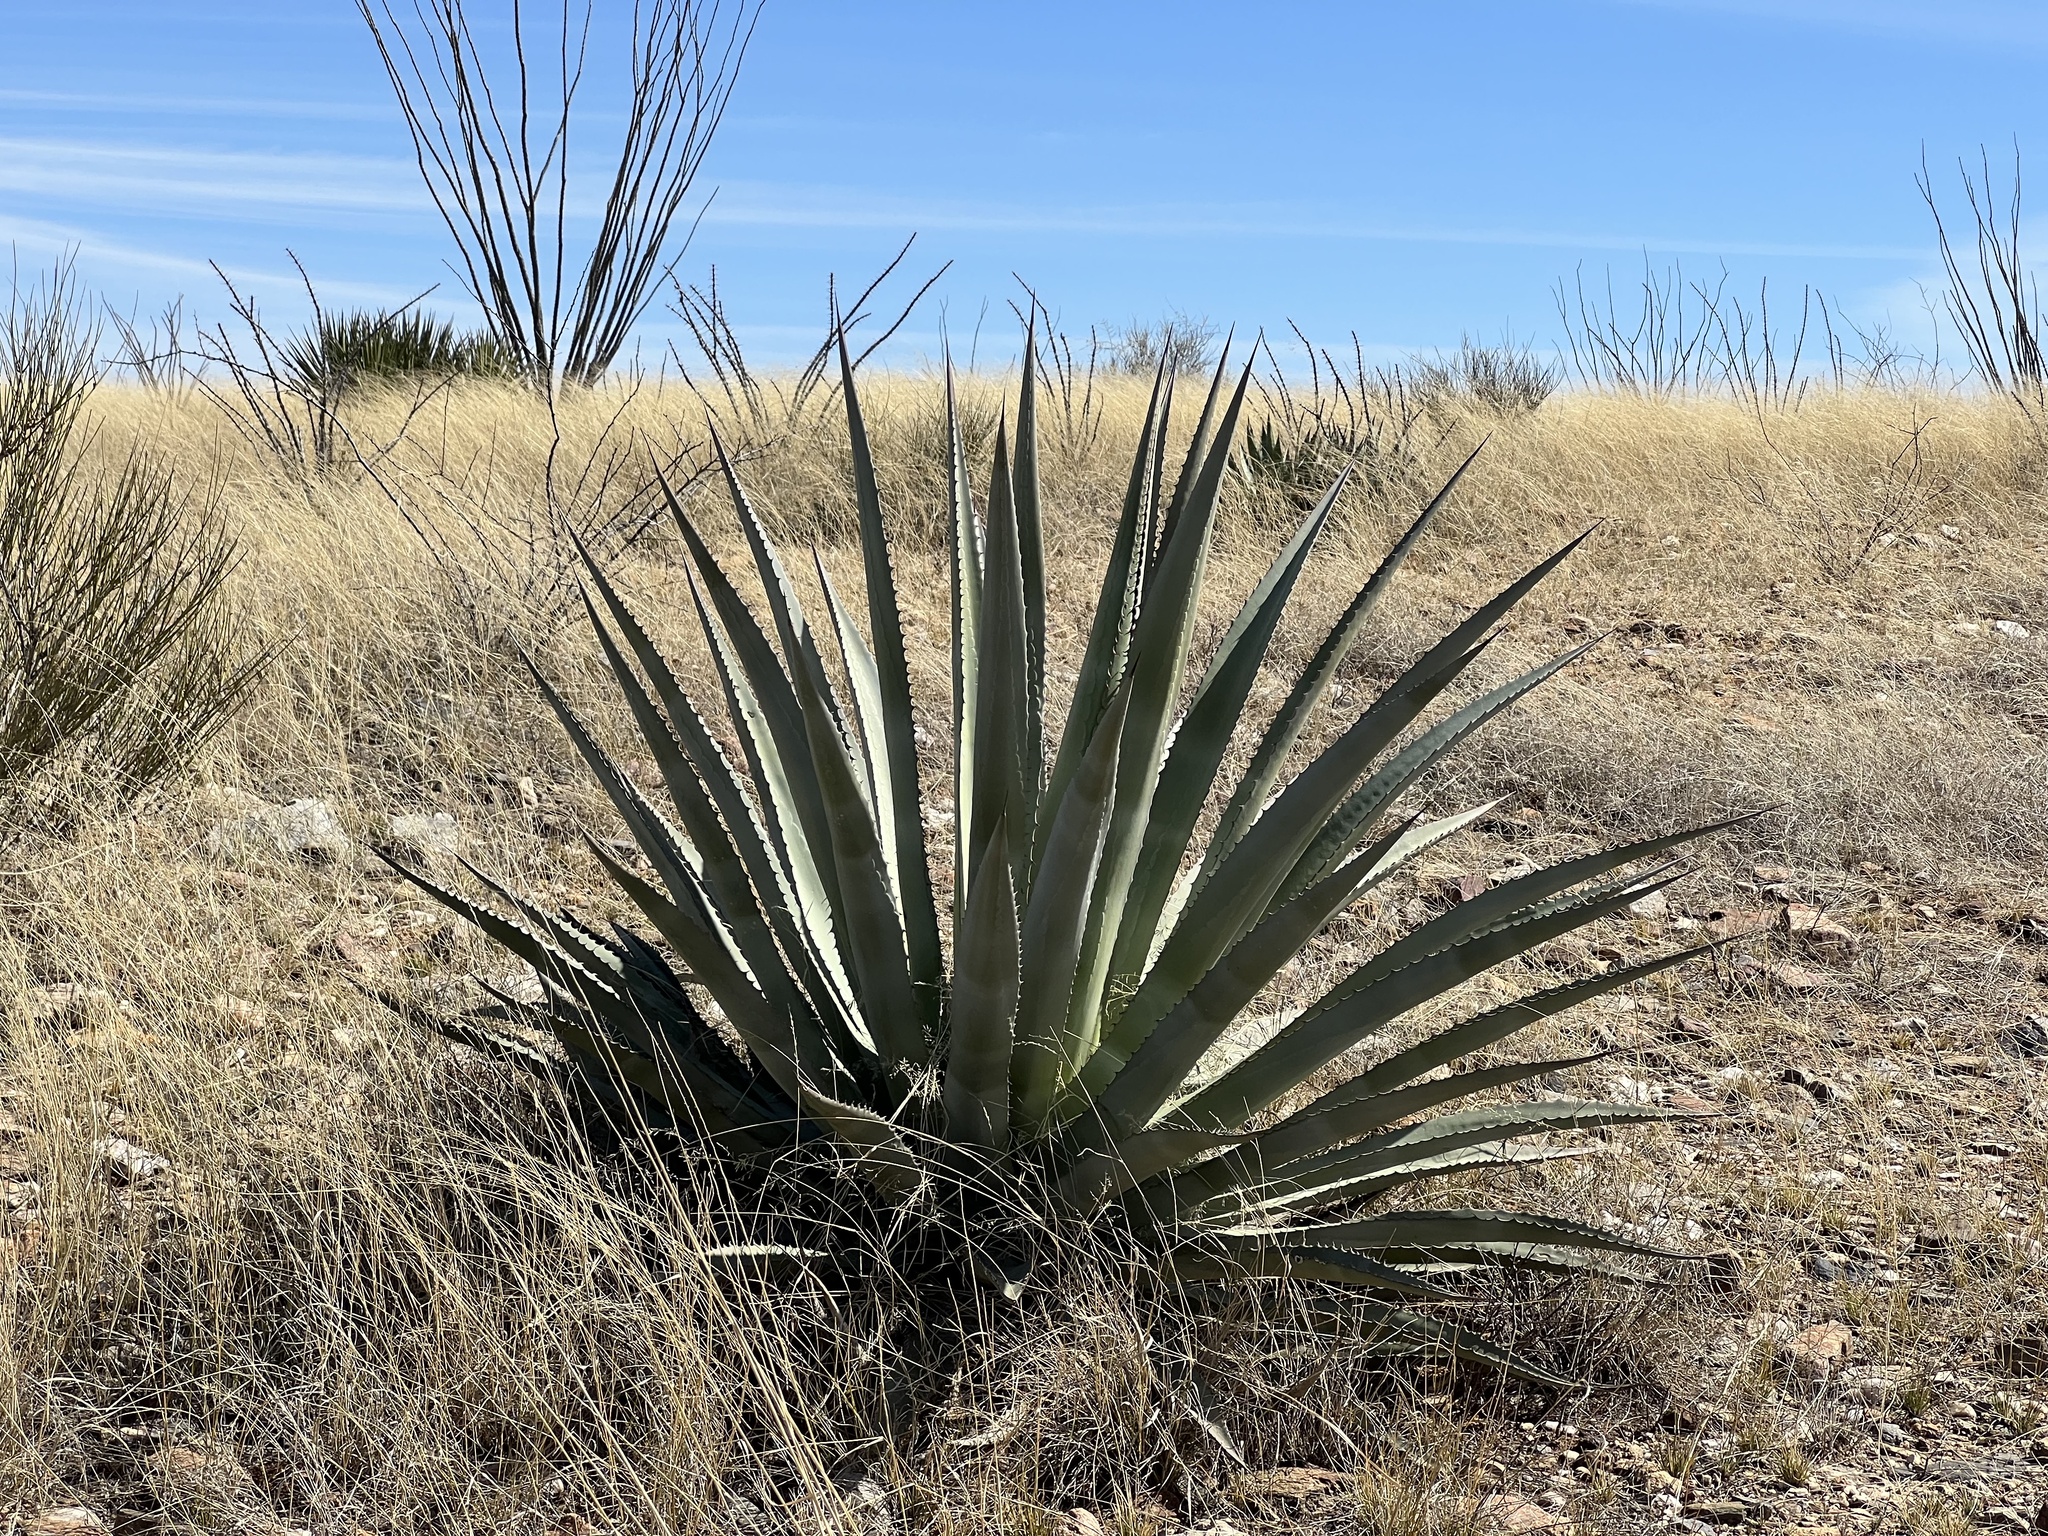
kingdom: Plantae
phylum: Tracheophyta
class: Liliopsida
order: Asparagales
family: Asparagaceae
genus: Agave
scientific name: Agave palmeri
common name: Palmer agave
